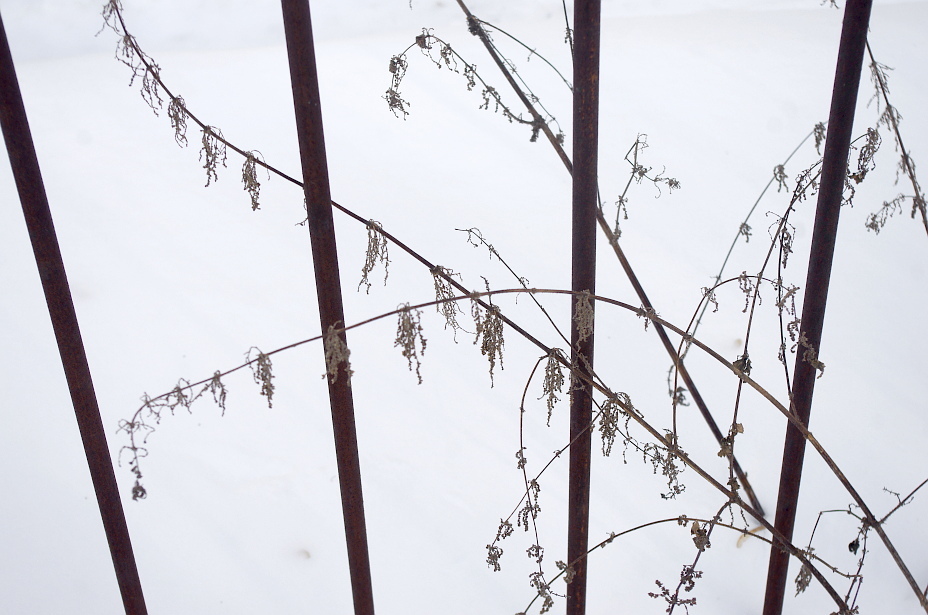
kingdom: Plantae
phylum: Tracheophyta
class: Magnoliopsida
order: Rosales
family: Urticaceae
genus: Urtica
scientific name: Urtica dioica
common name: Common nettle
